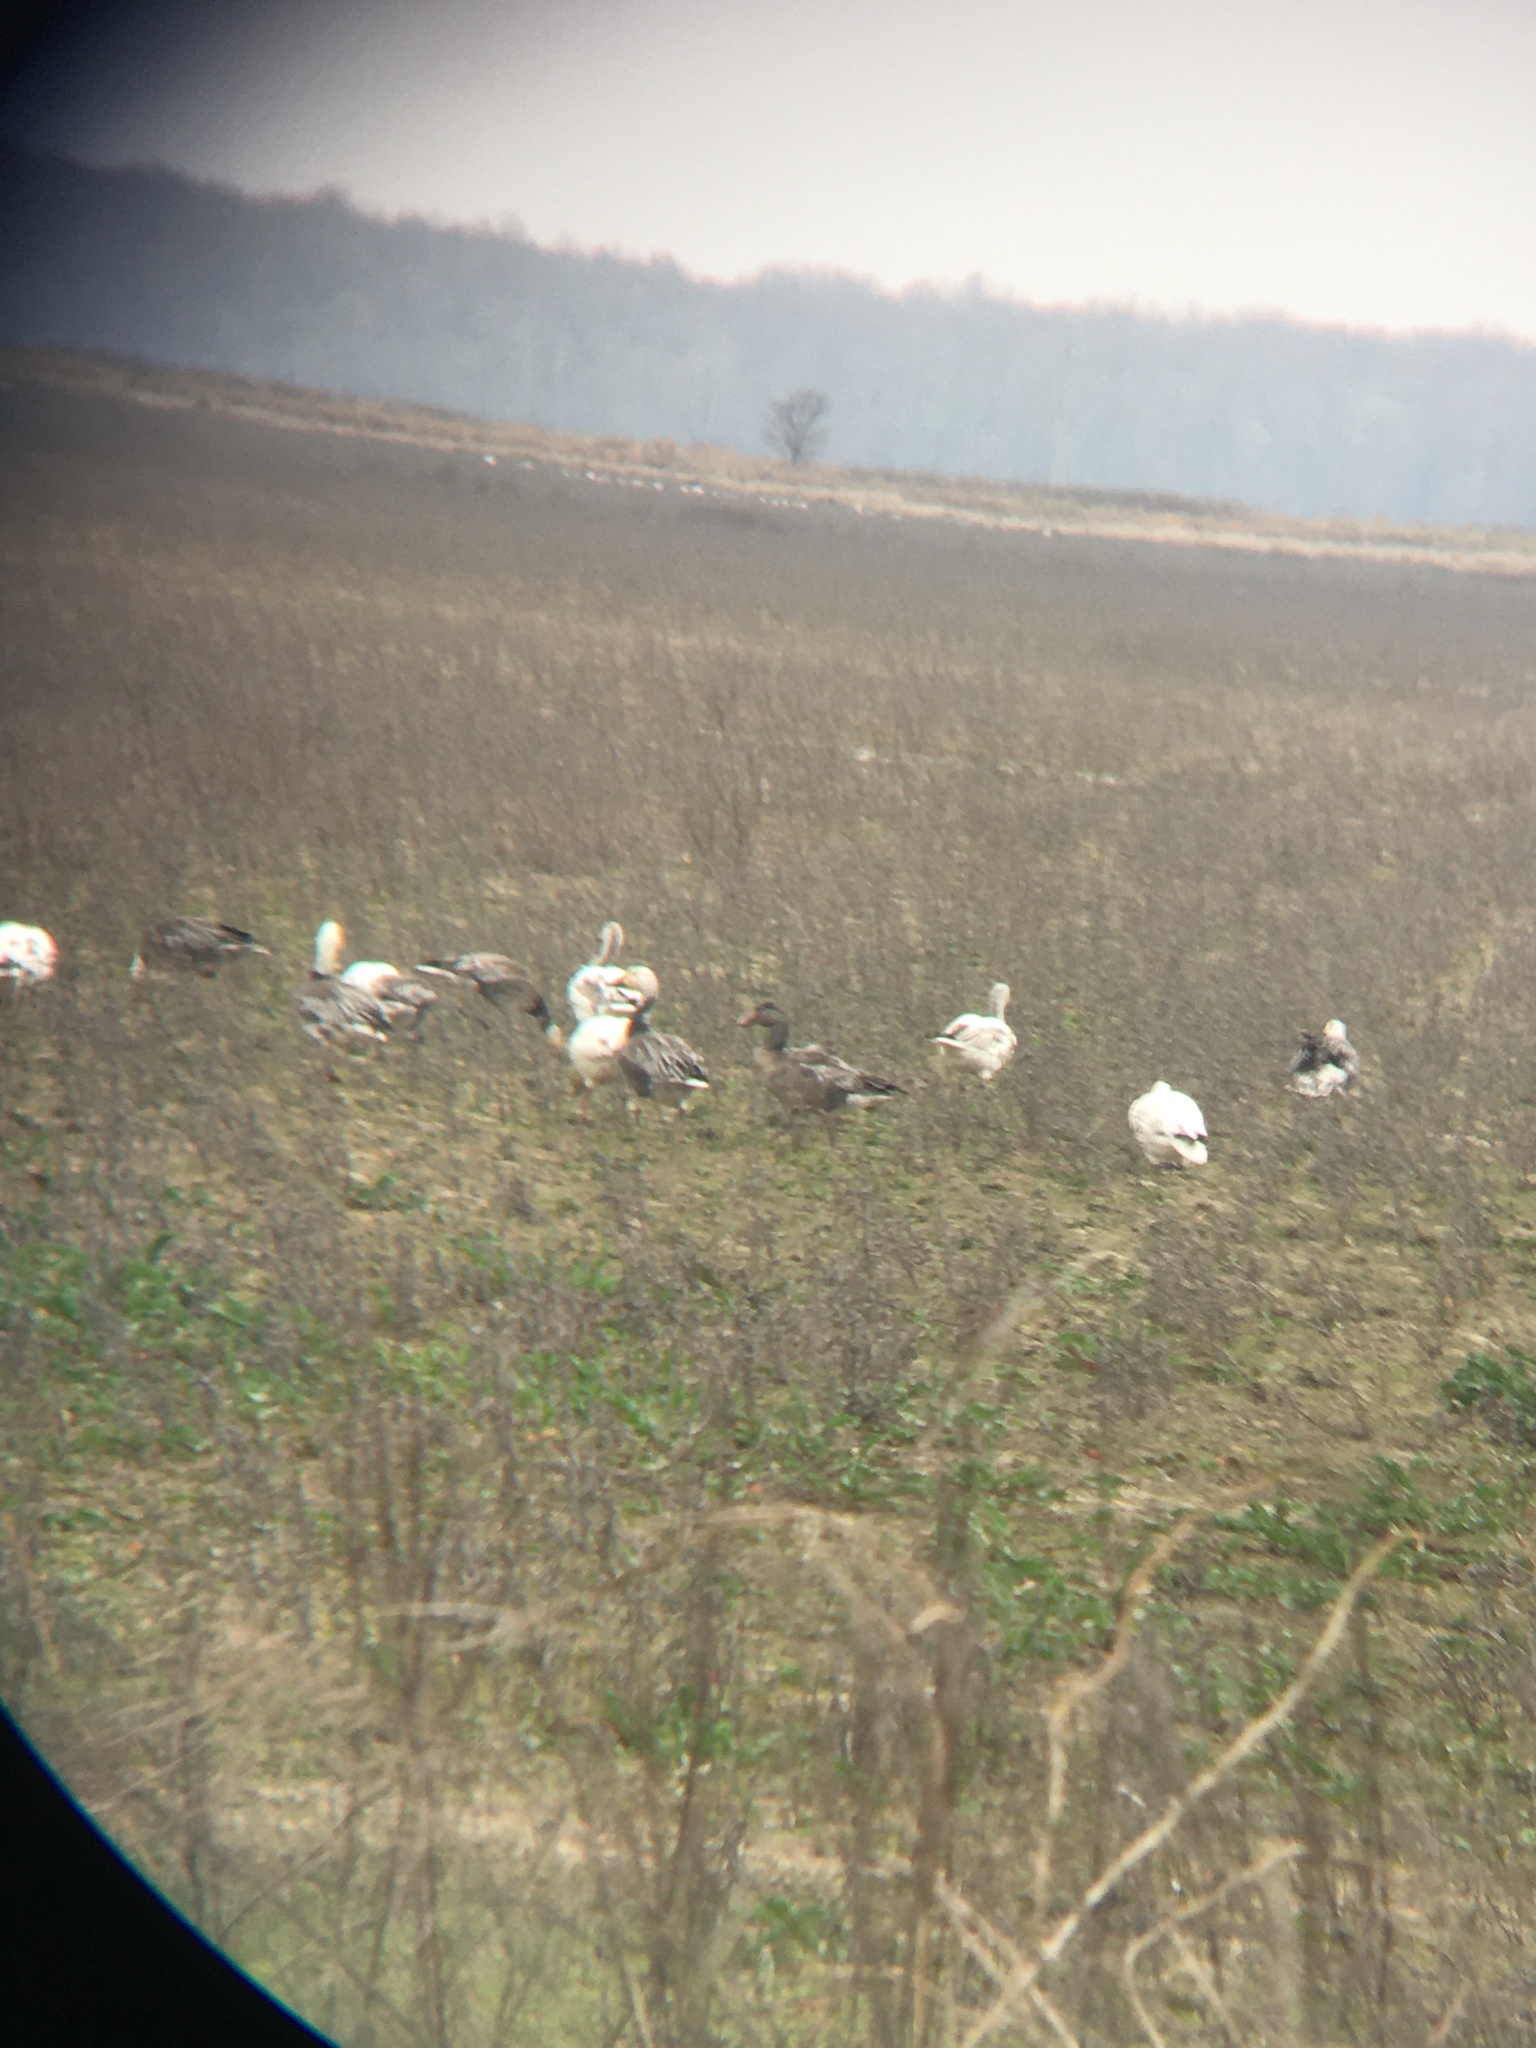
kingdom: Animalia
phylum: Chordata
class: Aves
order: Anseriformes
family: Anatidae
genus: Anser
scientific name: Anser caerulescens
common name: Snow goose
